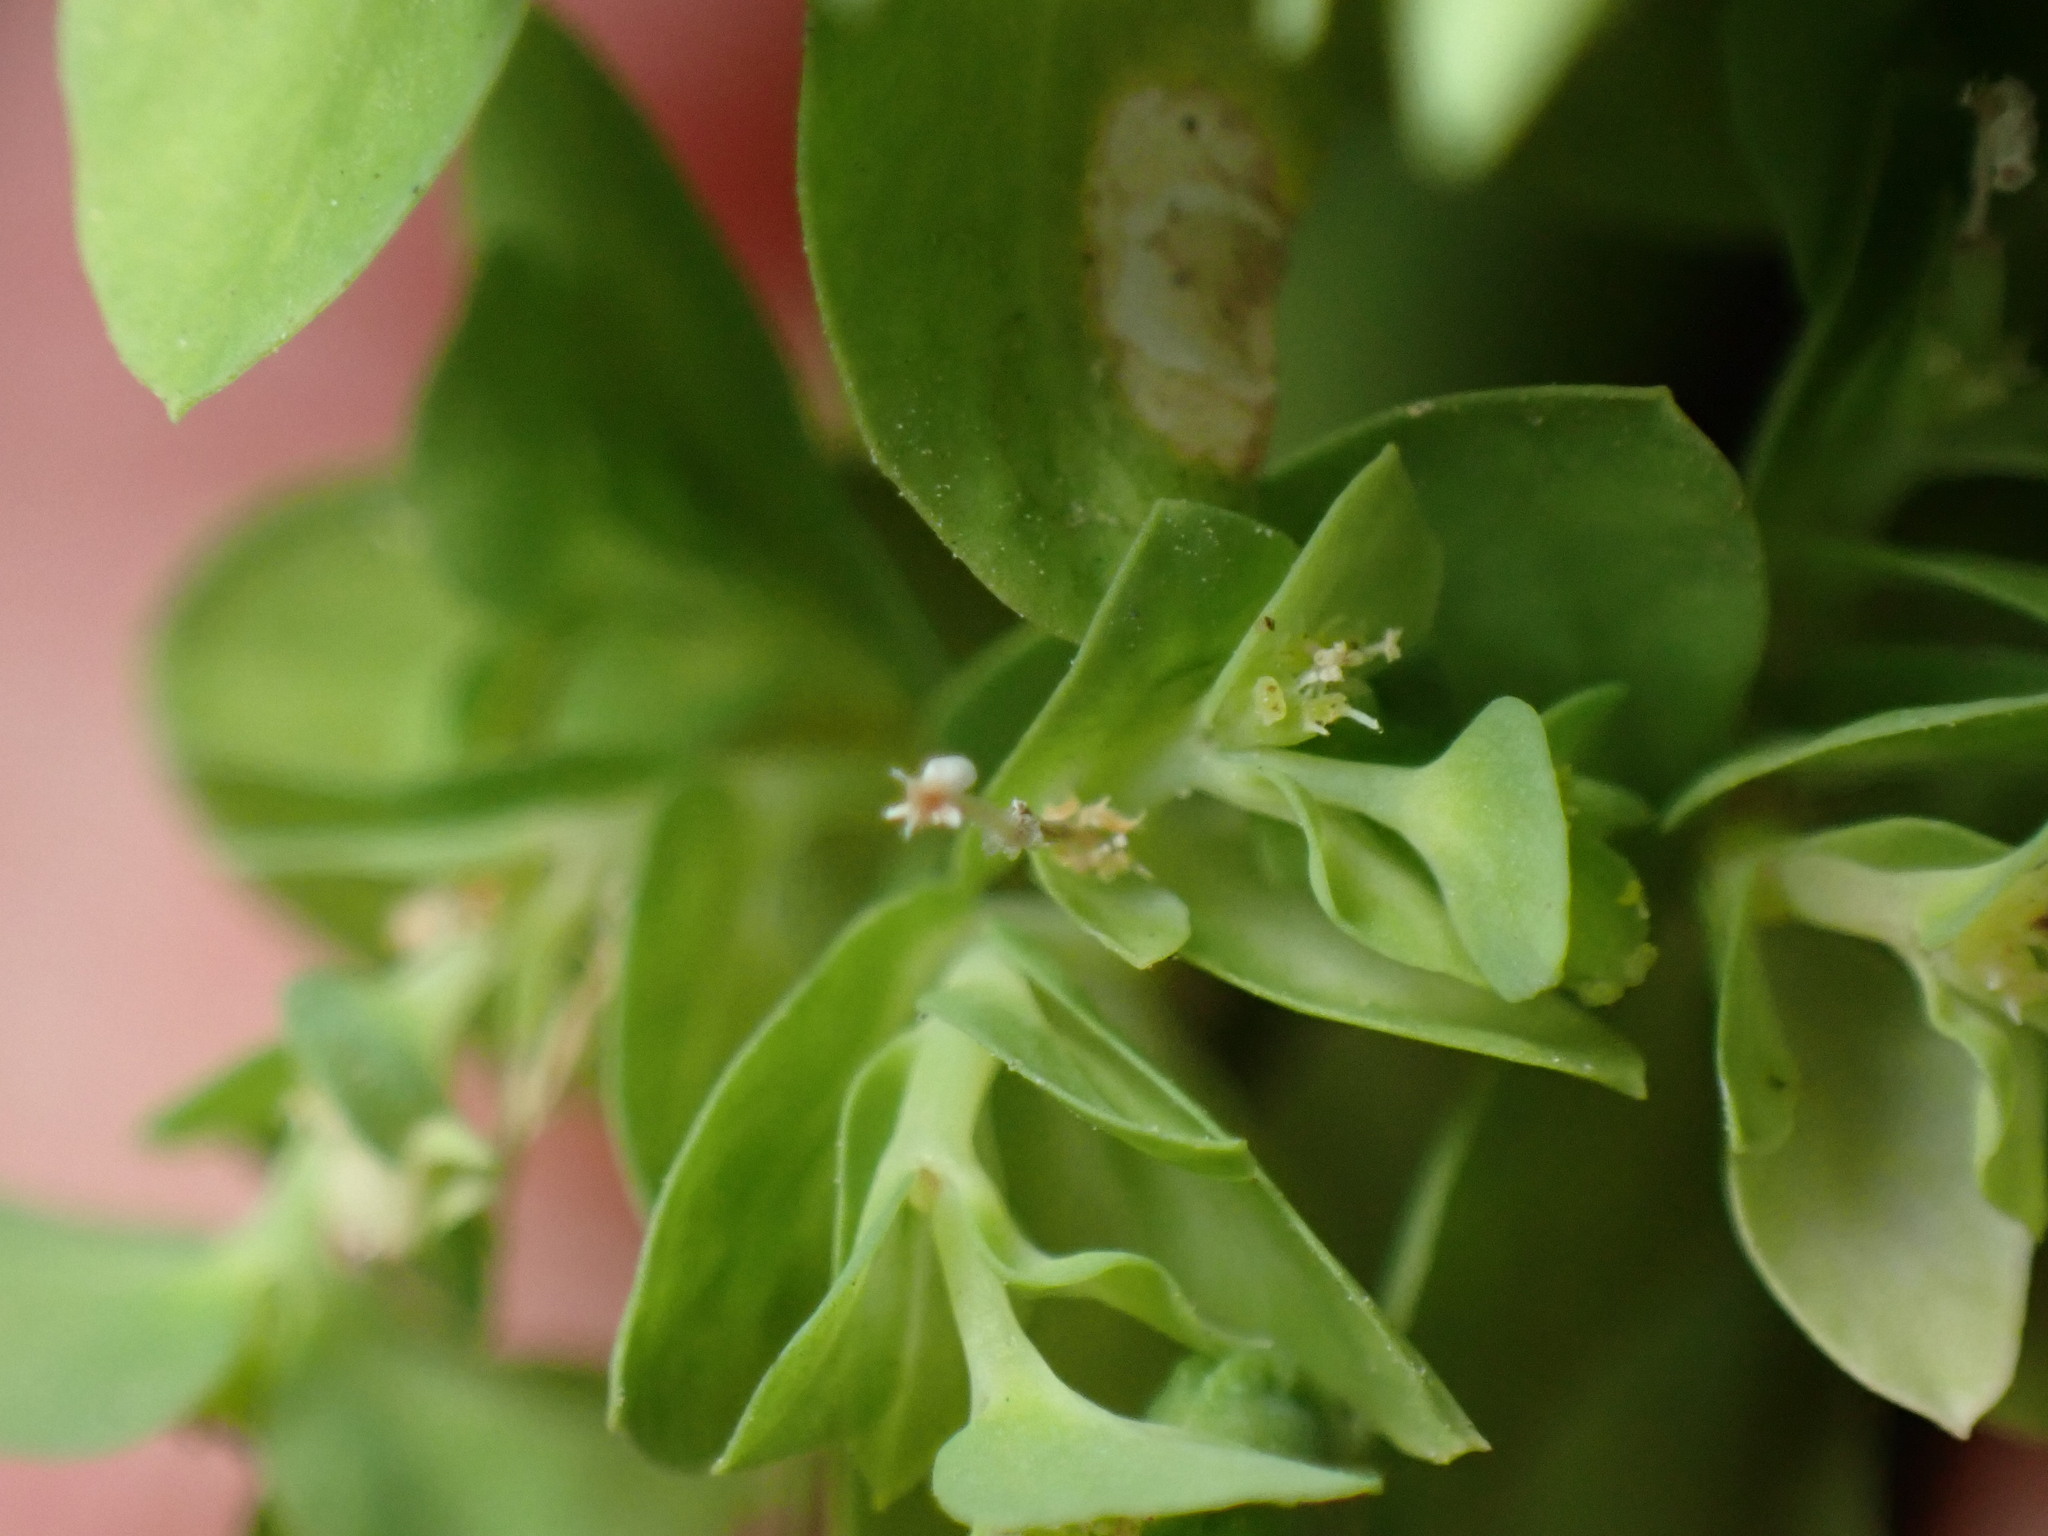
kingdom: Plantae
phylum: Tracheophyta
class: Magnoliopsida
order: Malpighiales
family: Euphorbiaceae
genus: Euphorbia
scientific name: Euphorbia peplus
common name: Petty spurge
